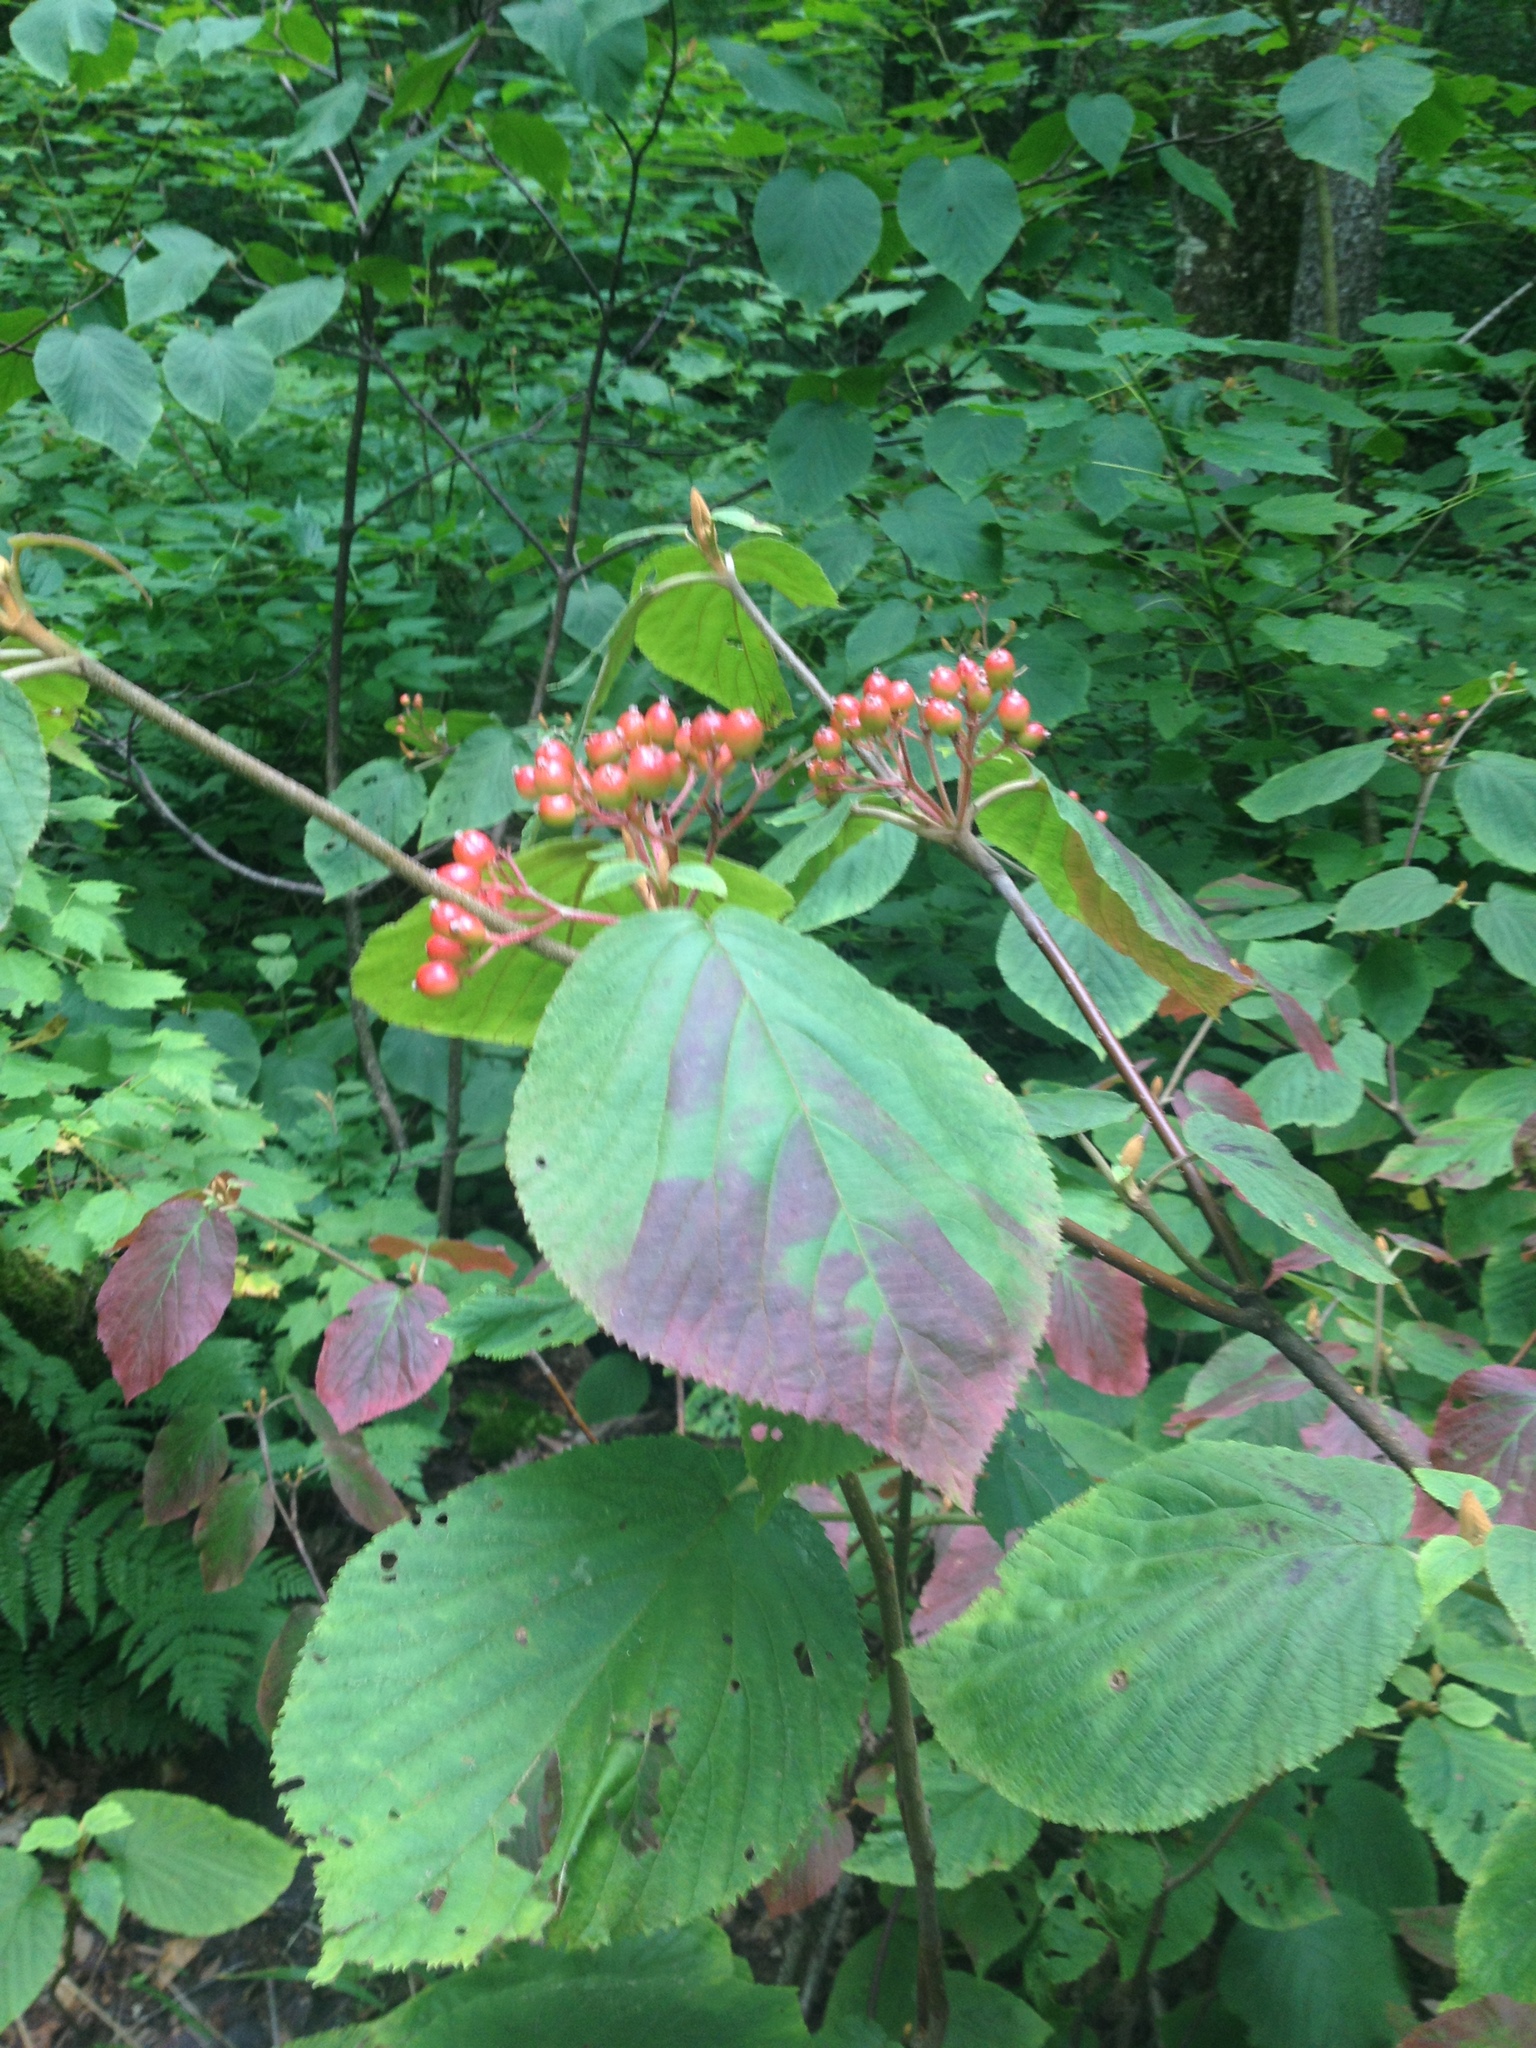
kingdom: Plantae
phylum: Tracheophyta
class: Magnoliopsida
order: Dipsacales
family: Viburnaceae
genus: Viburnum
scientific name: Viburnum lantanoides
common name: Hobblebush
